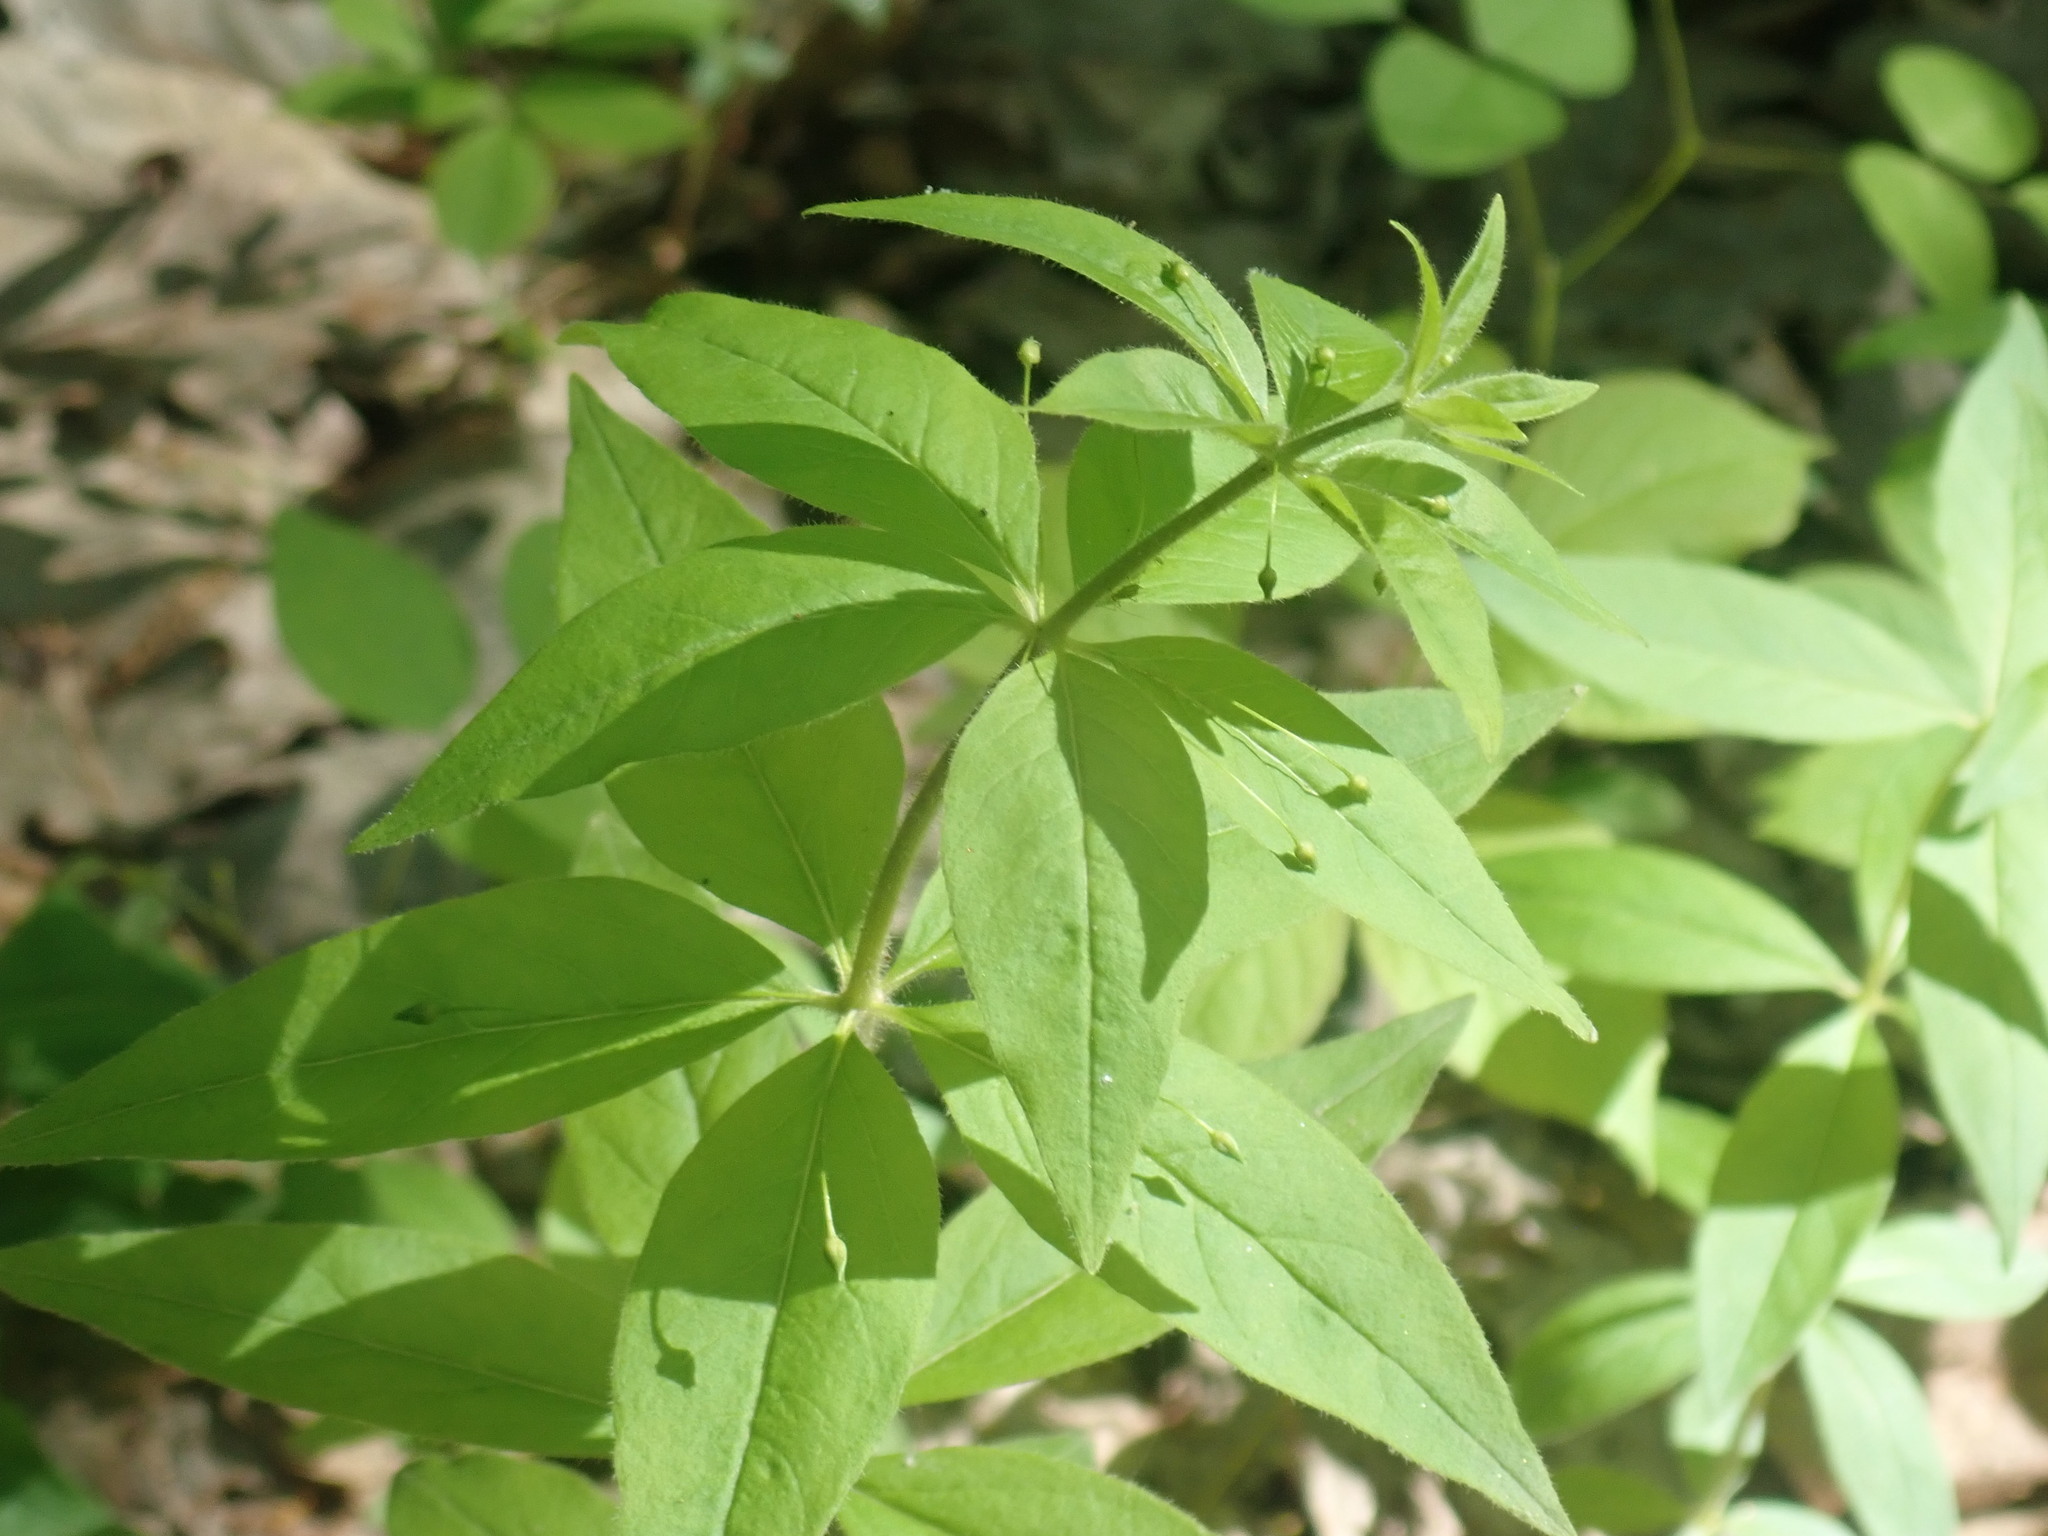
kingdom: Plantae
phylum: Tracheophyta
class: Magnoliopsida
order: Ericales
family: Primulaceae
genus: Lysimachia
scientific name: Lysimachia quadrifolia
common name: Whorled loosestrife
